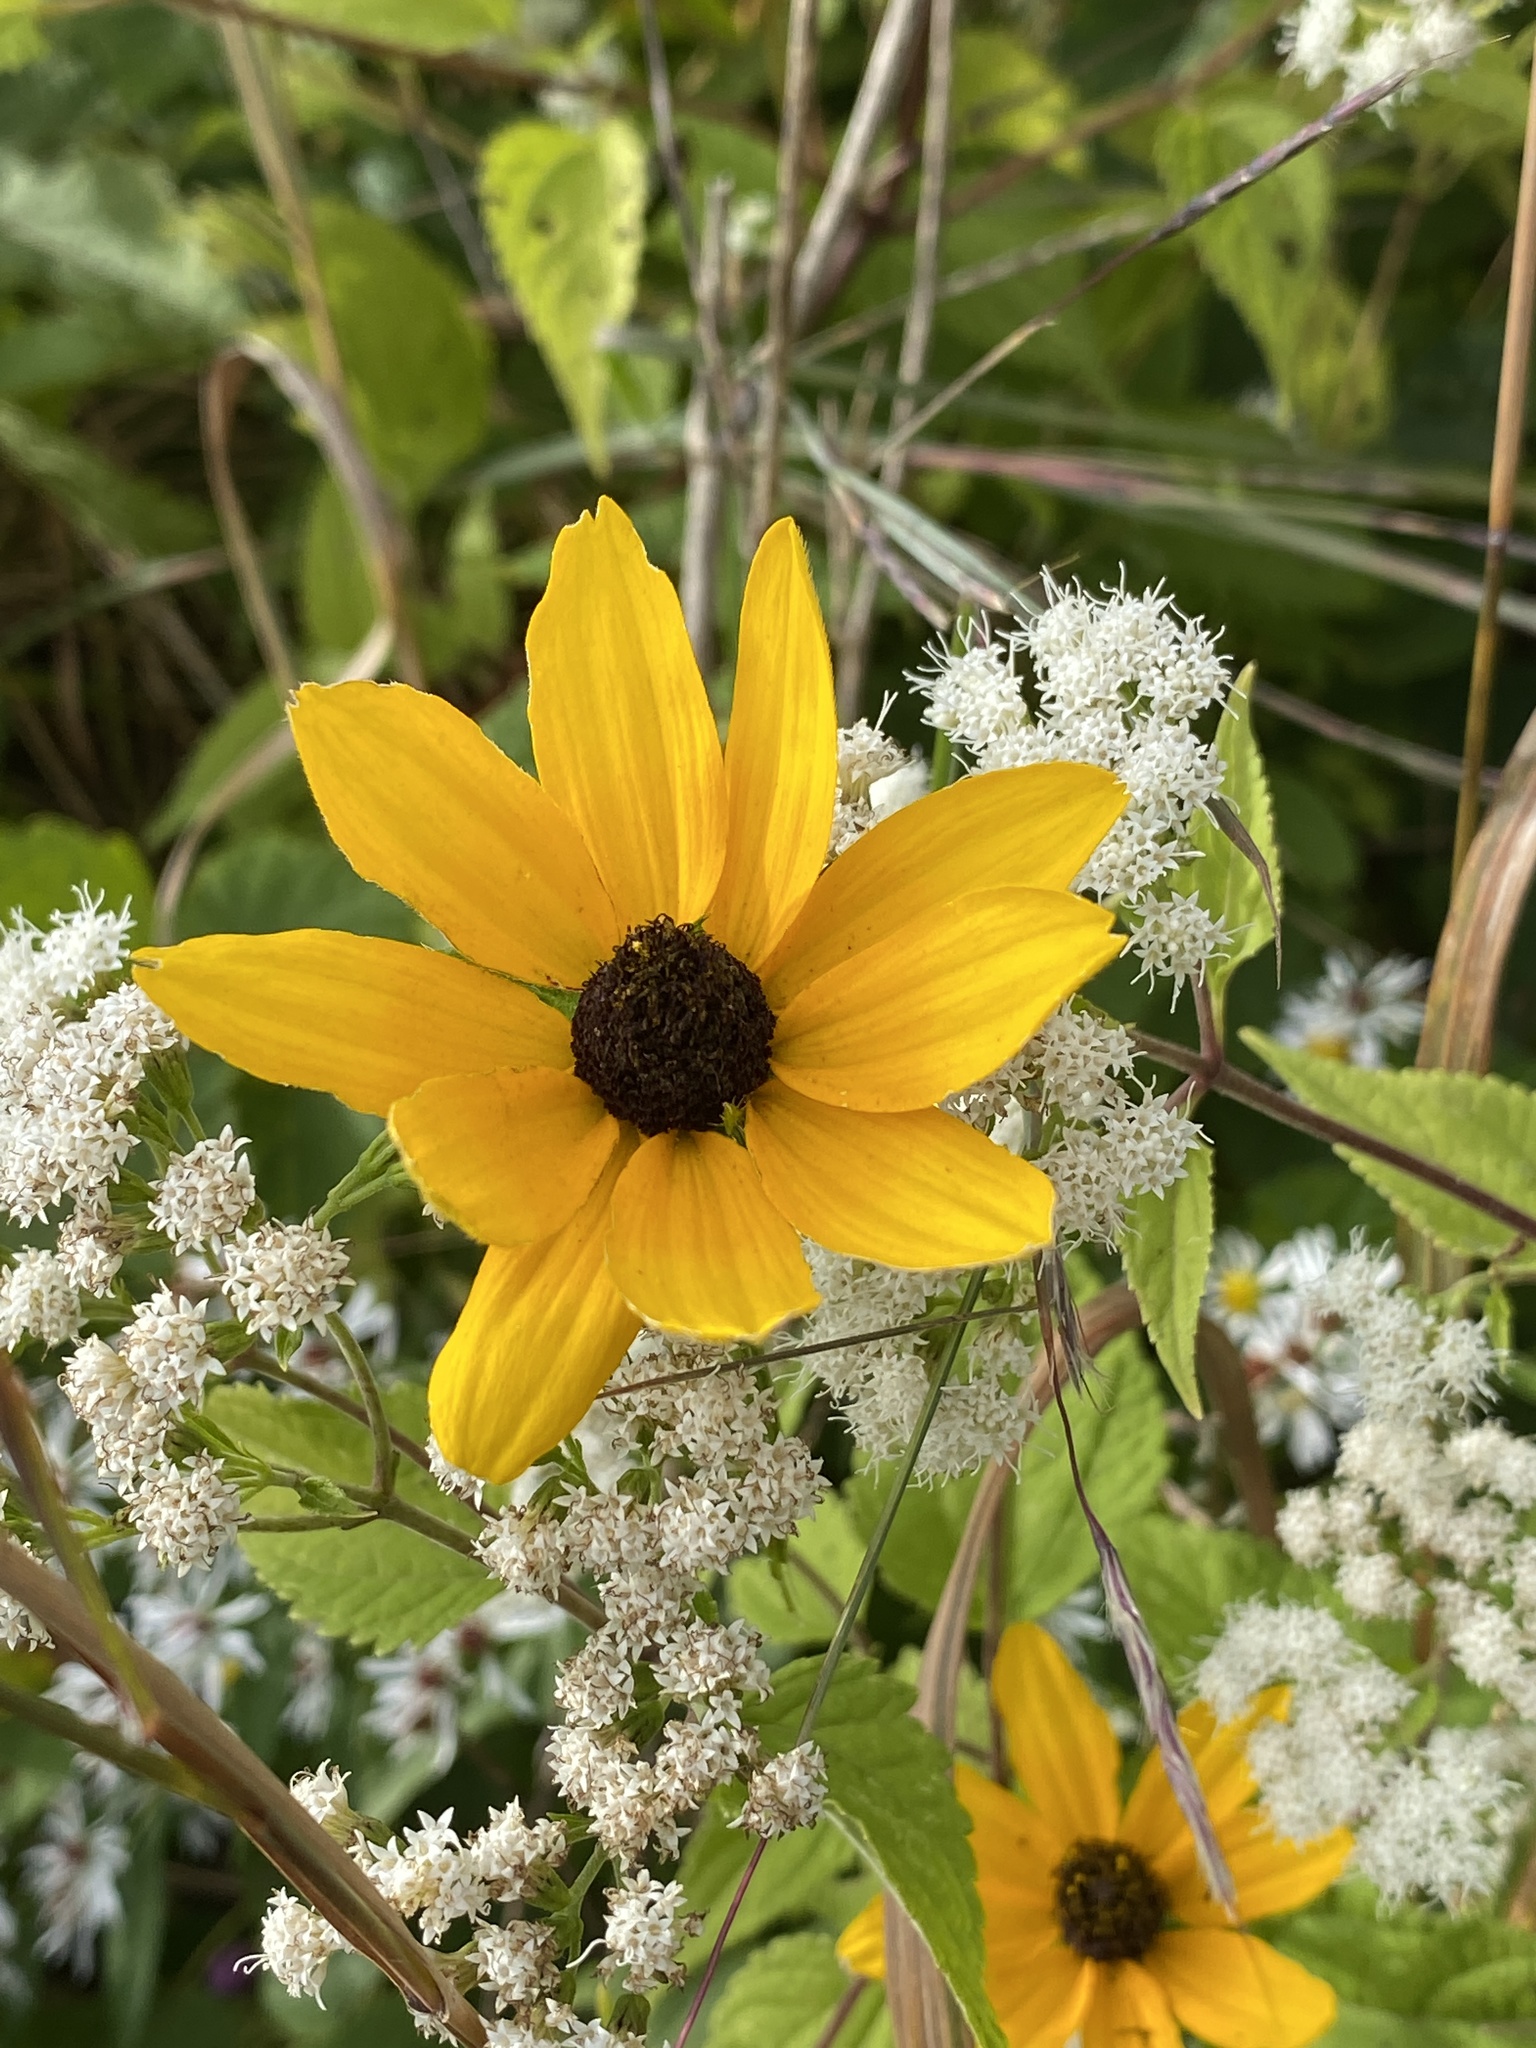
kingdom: Plantae
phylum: Tracheophyta
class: Magnoliopsida
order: Asterales
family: Asteraceae
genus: Rudbeckia
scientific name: Rudbeckia triloba
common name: Thin-leaved coneflower
